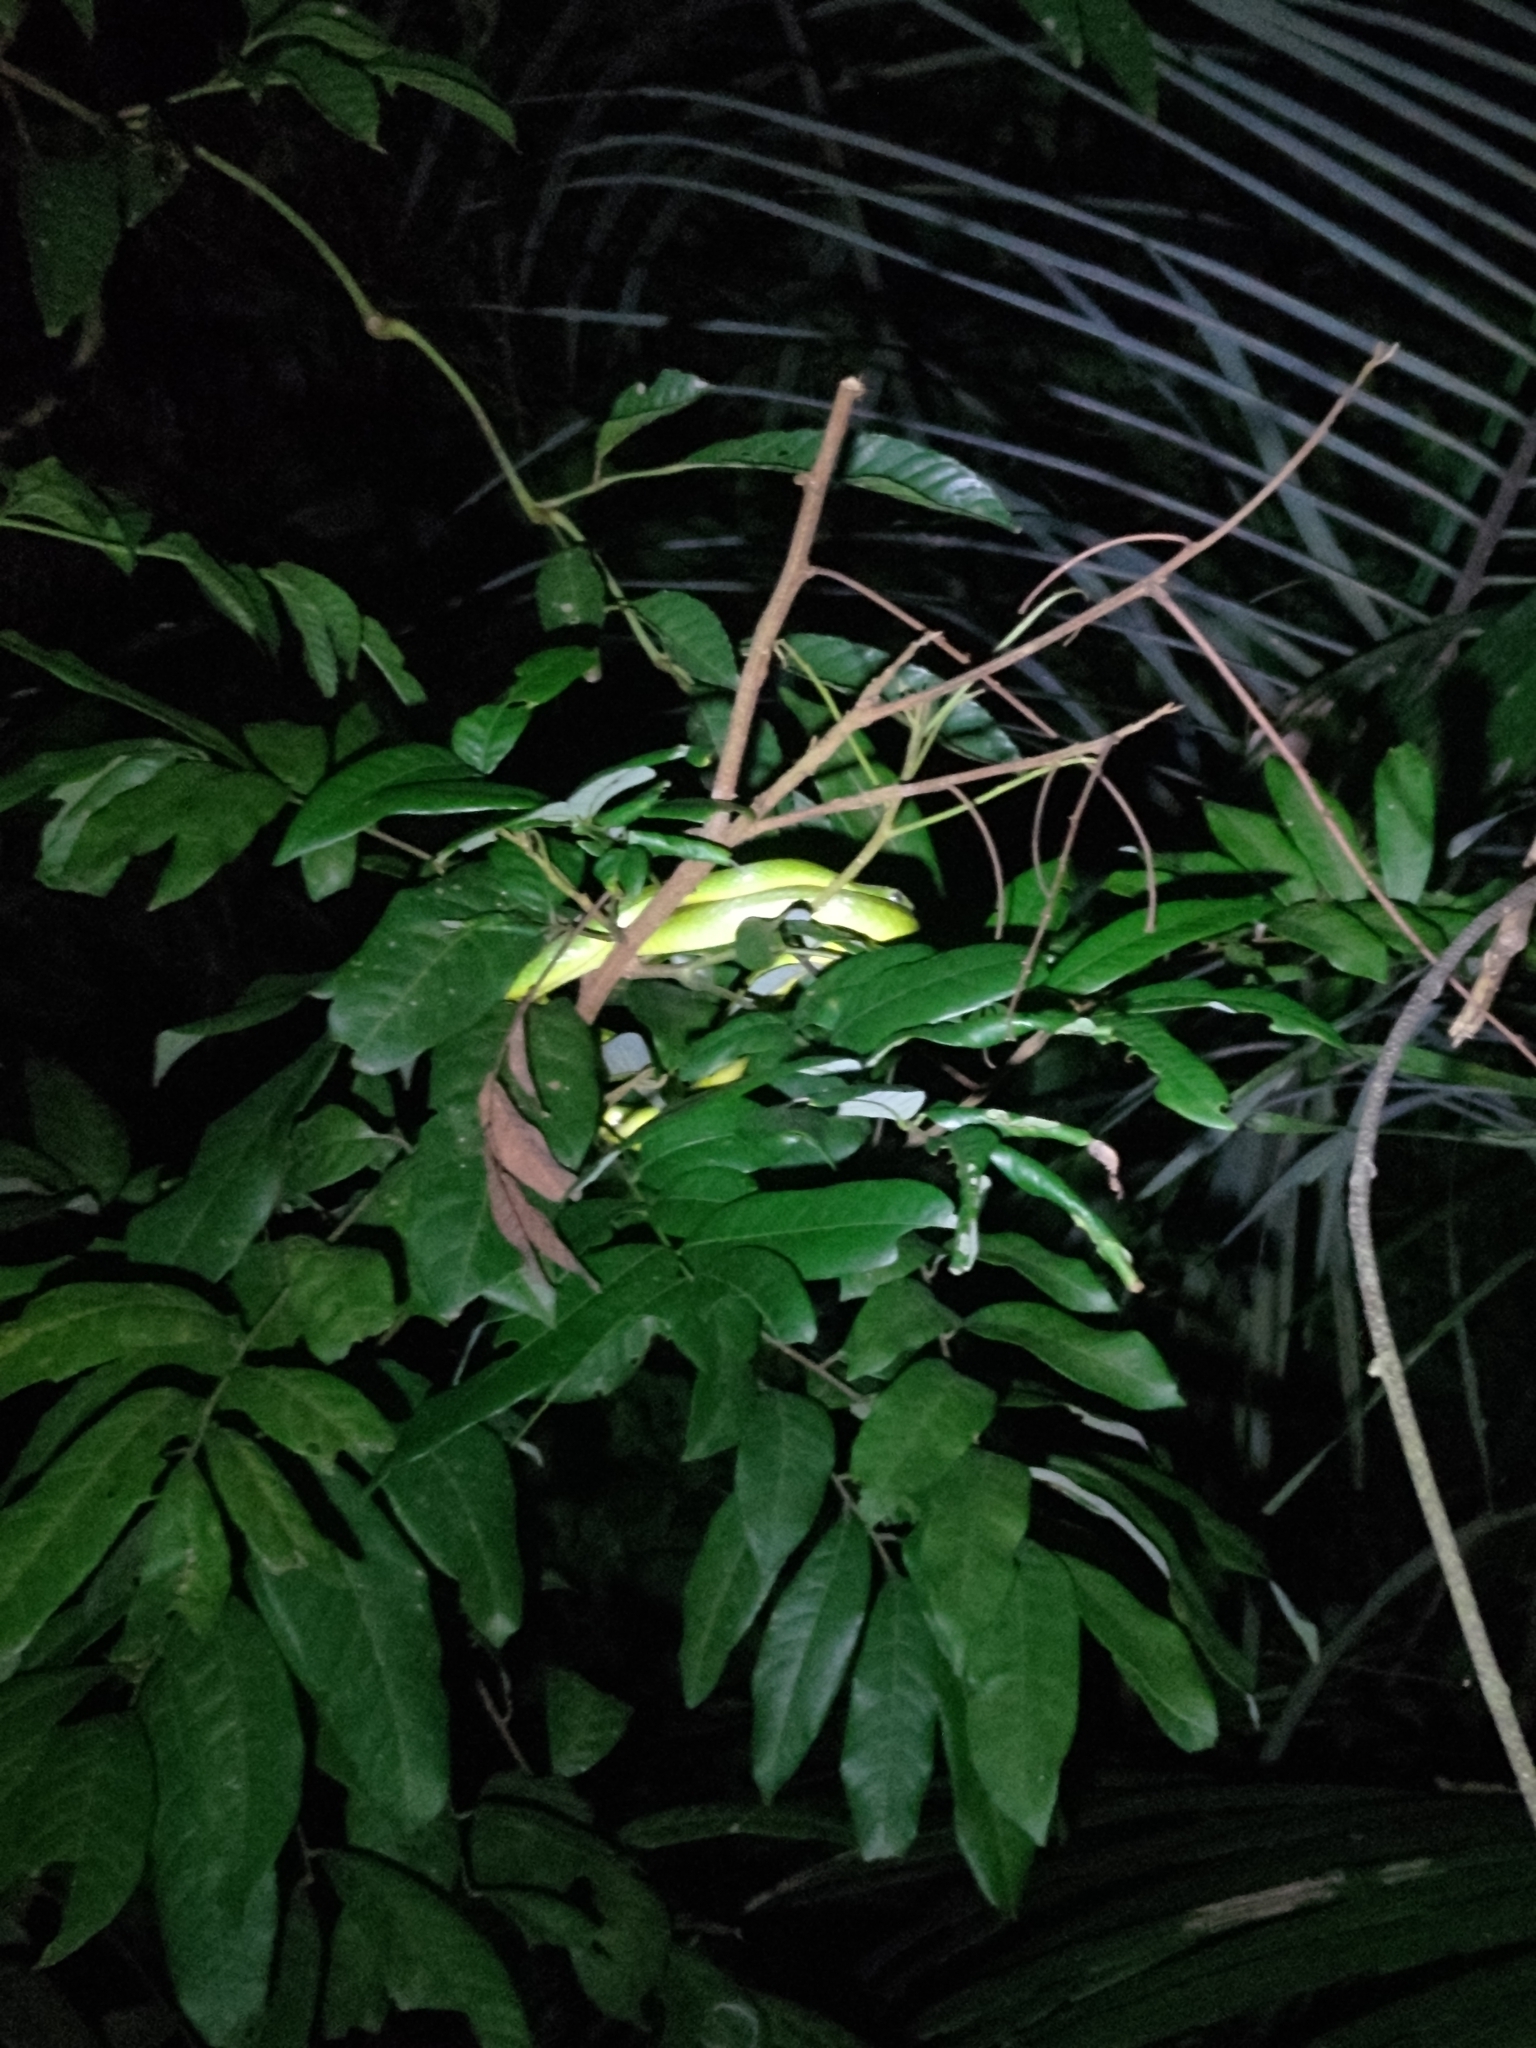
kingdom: Animalia
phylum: Chordata
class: Squamata
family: Colubridae
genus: Ptyas
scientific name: Ptyas major
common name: Chinese green snake
